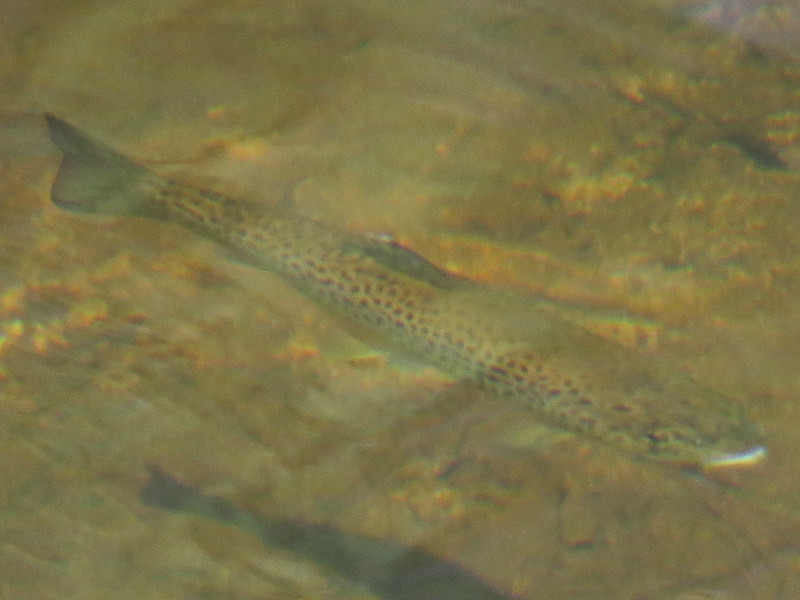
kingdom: Animalia
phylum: Chordata
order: Salmoniformes
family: Salmonidae
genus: Salmo
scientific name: Salmo trutta
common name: Brown trout
